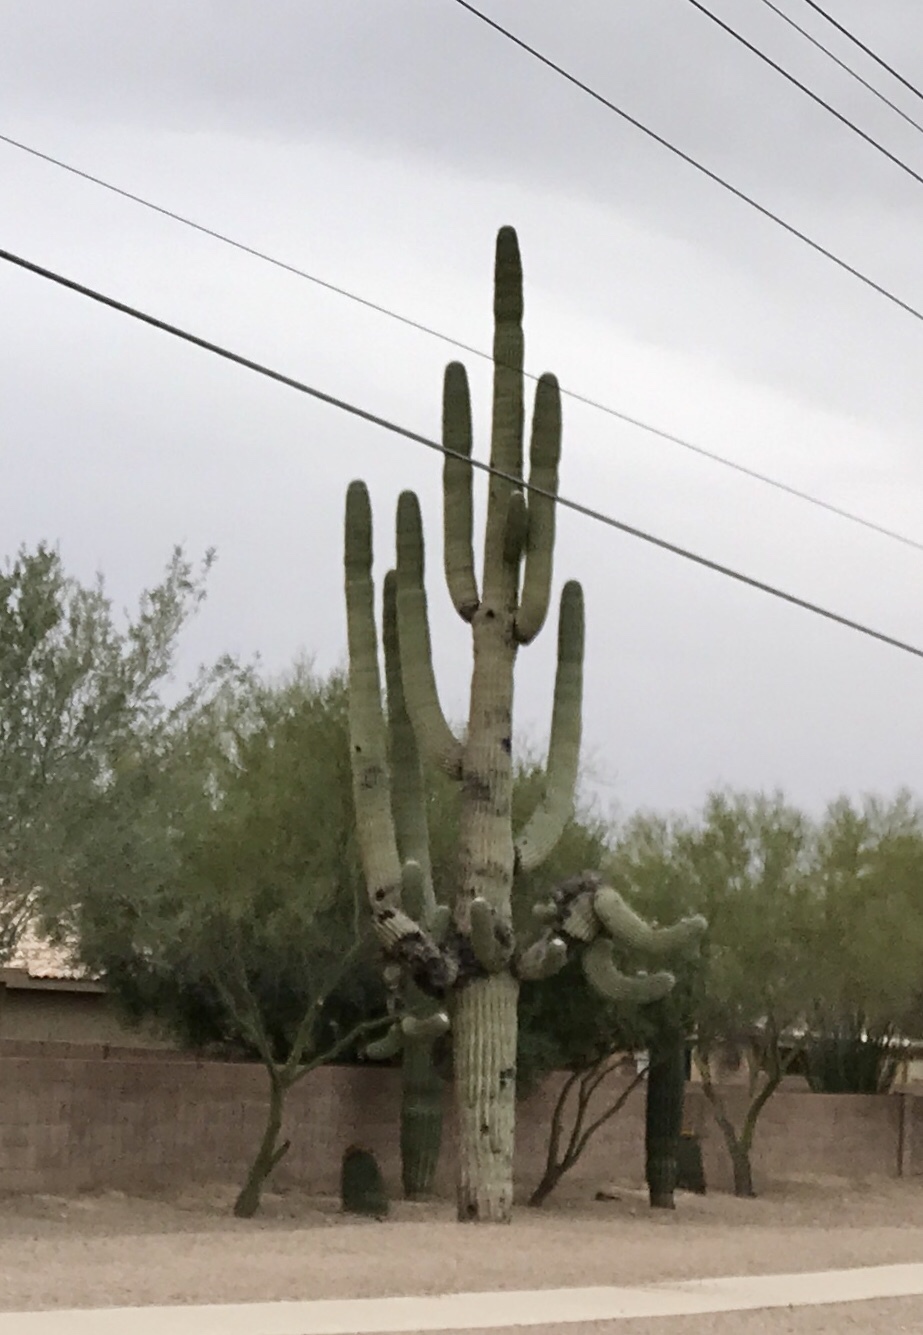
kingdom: Plantae
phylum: Tracheophyta
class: Magnoliopsida
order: Caryophyllales
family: Cactaceae
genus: Carnegiea
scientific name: Carnegiea gigantea
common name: Saguaro
